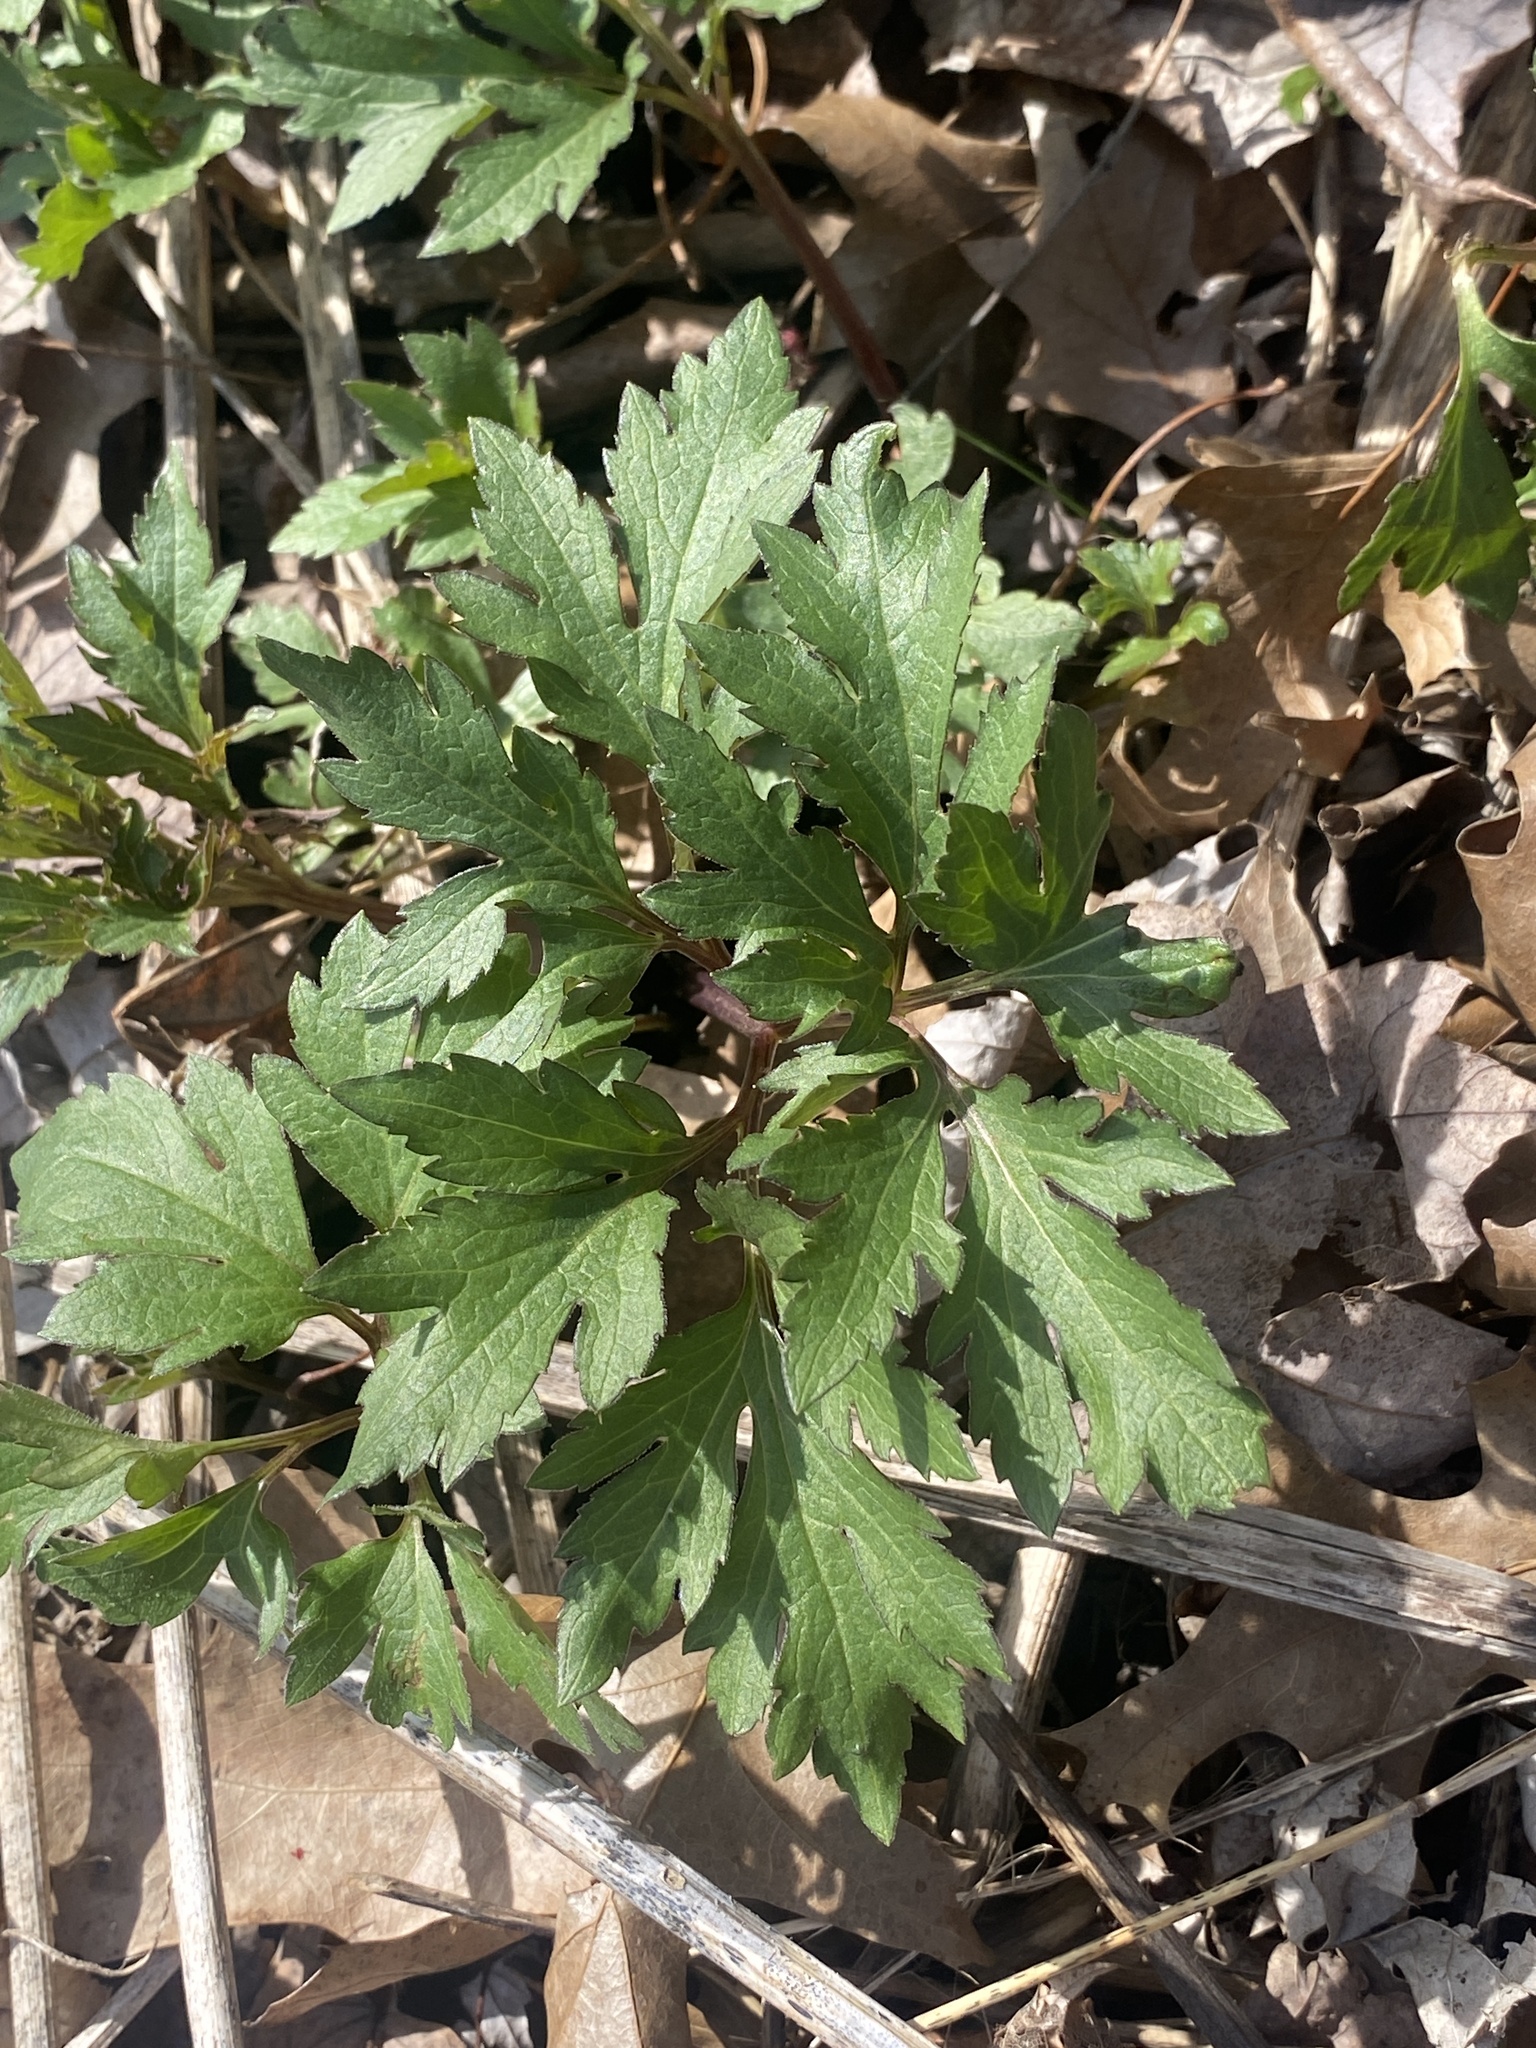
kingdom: Plantae
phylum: Tracheophyta
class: Magnoliopsida
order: Asterales
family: Asteraceae
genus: Rudbeckia
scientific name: Rudbeckia laciniata
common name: Coneflower
